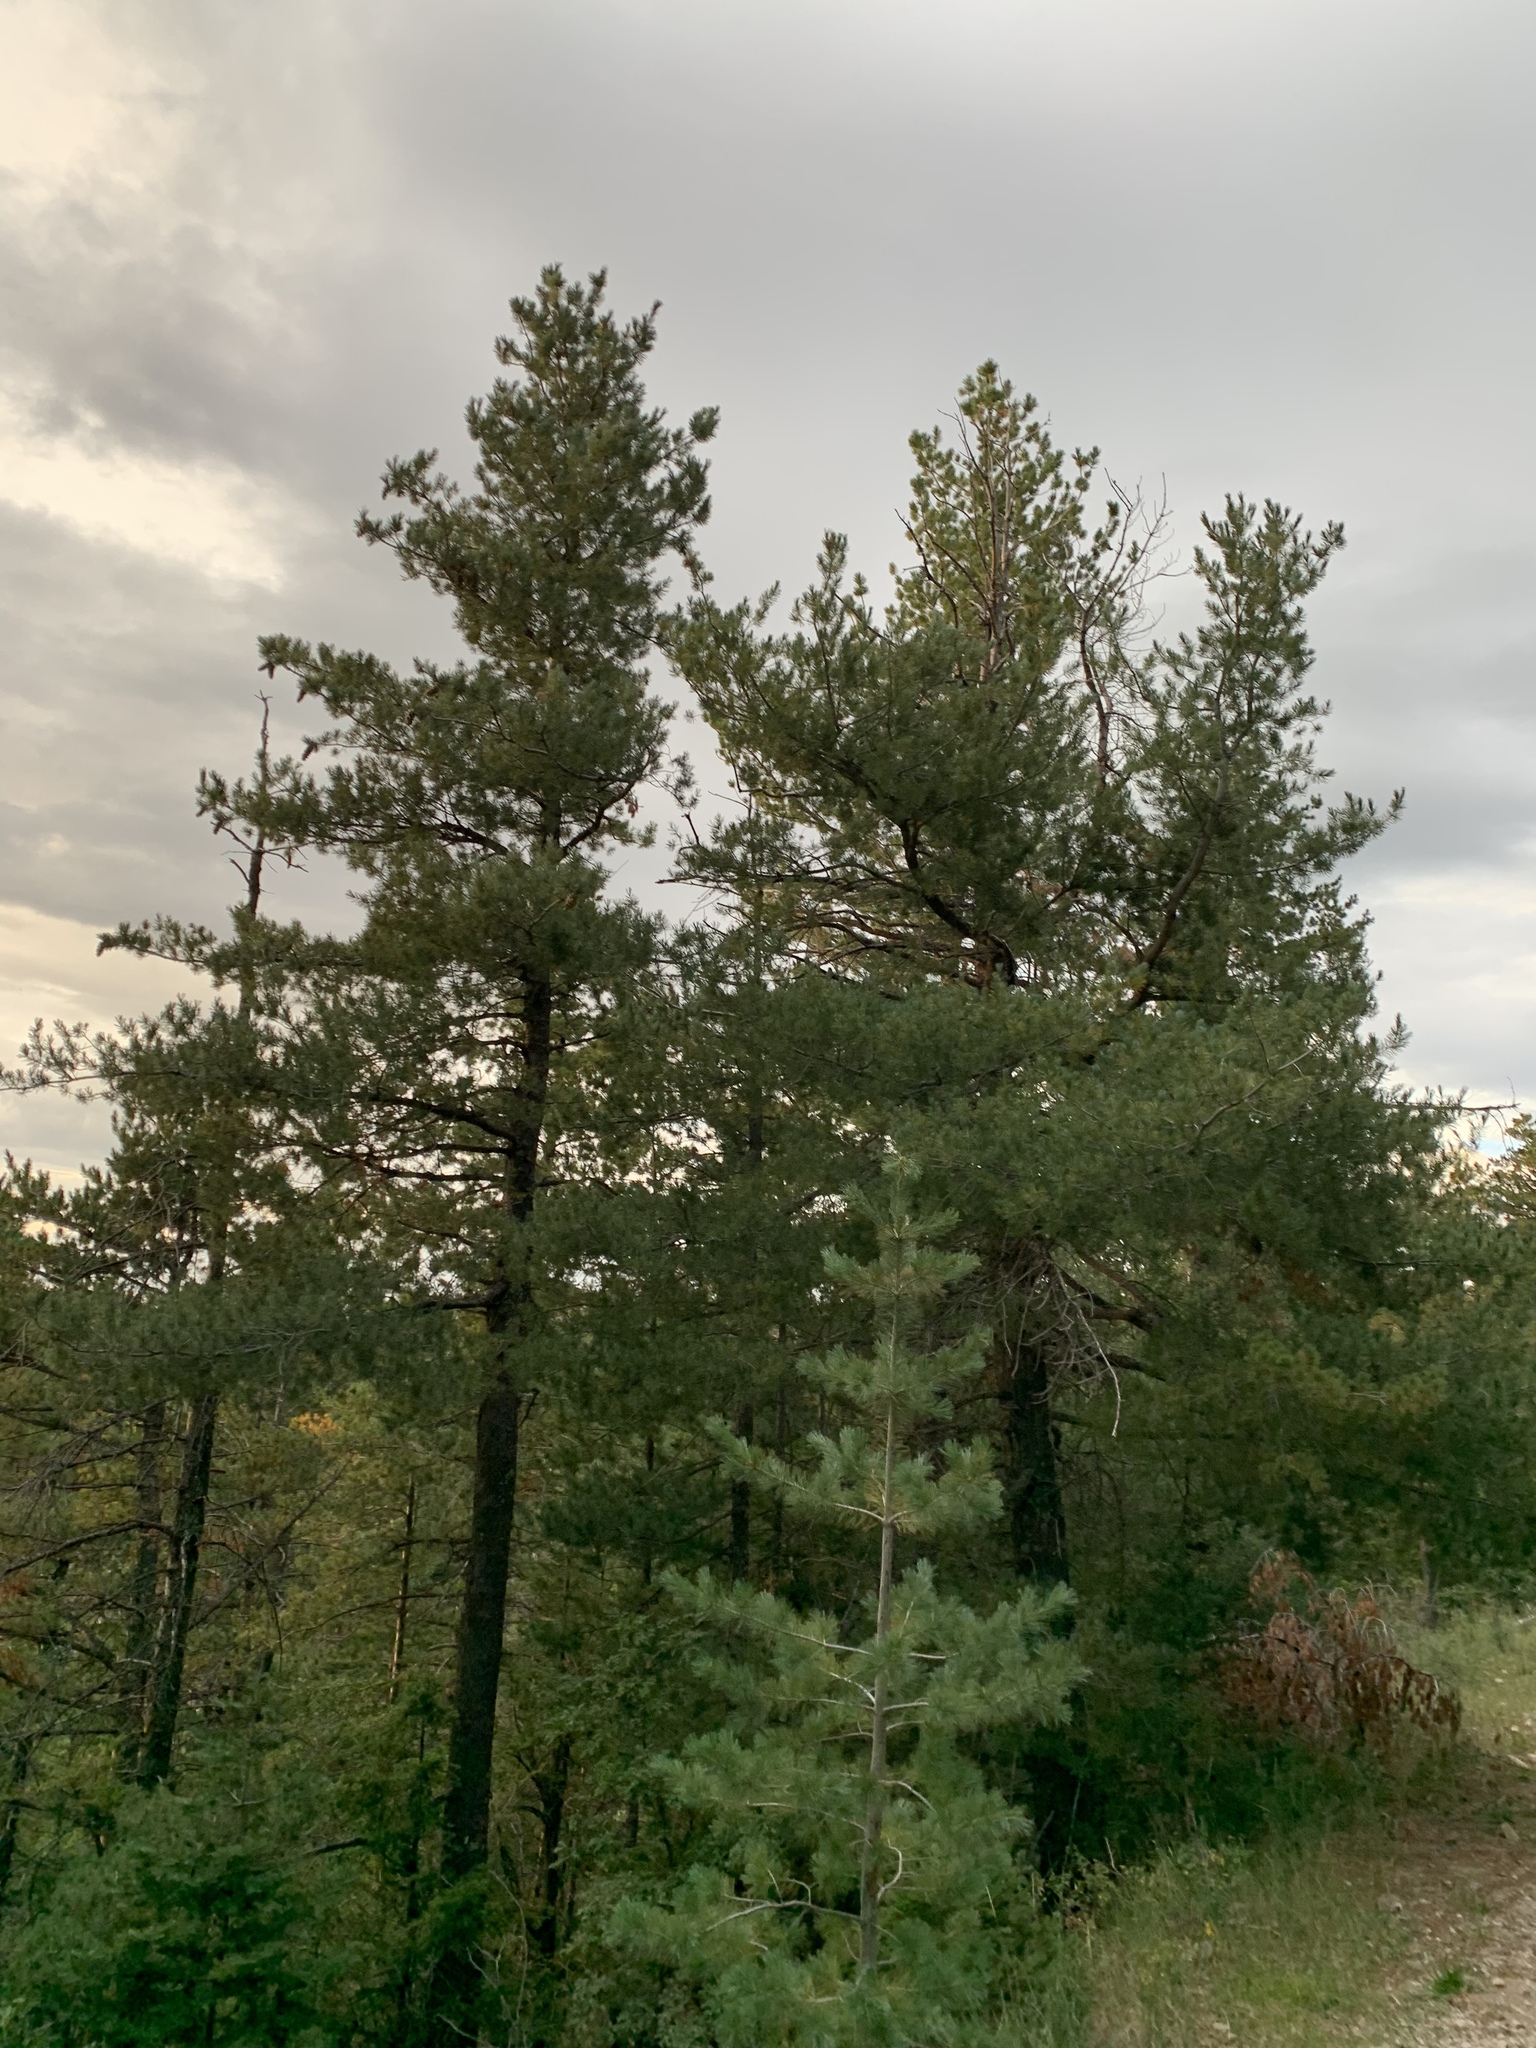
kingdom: Plantae
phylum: Tracheophyta
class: Pinopsida
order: Pinales
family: Pinaceae
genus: Pinus
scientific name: Pinus strobiformis
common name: Southwestern white pine
